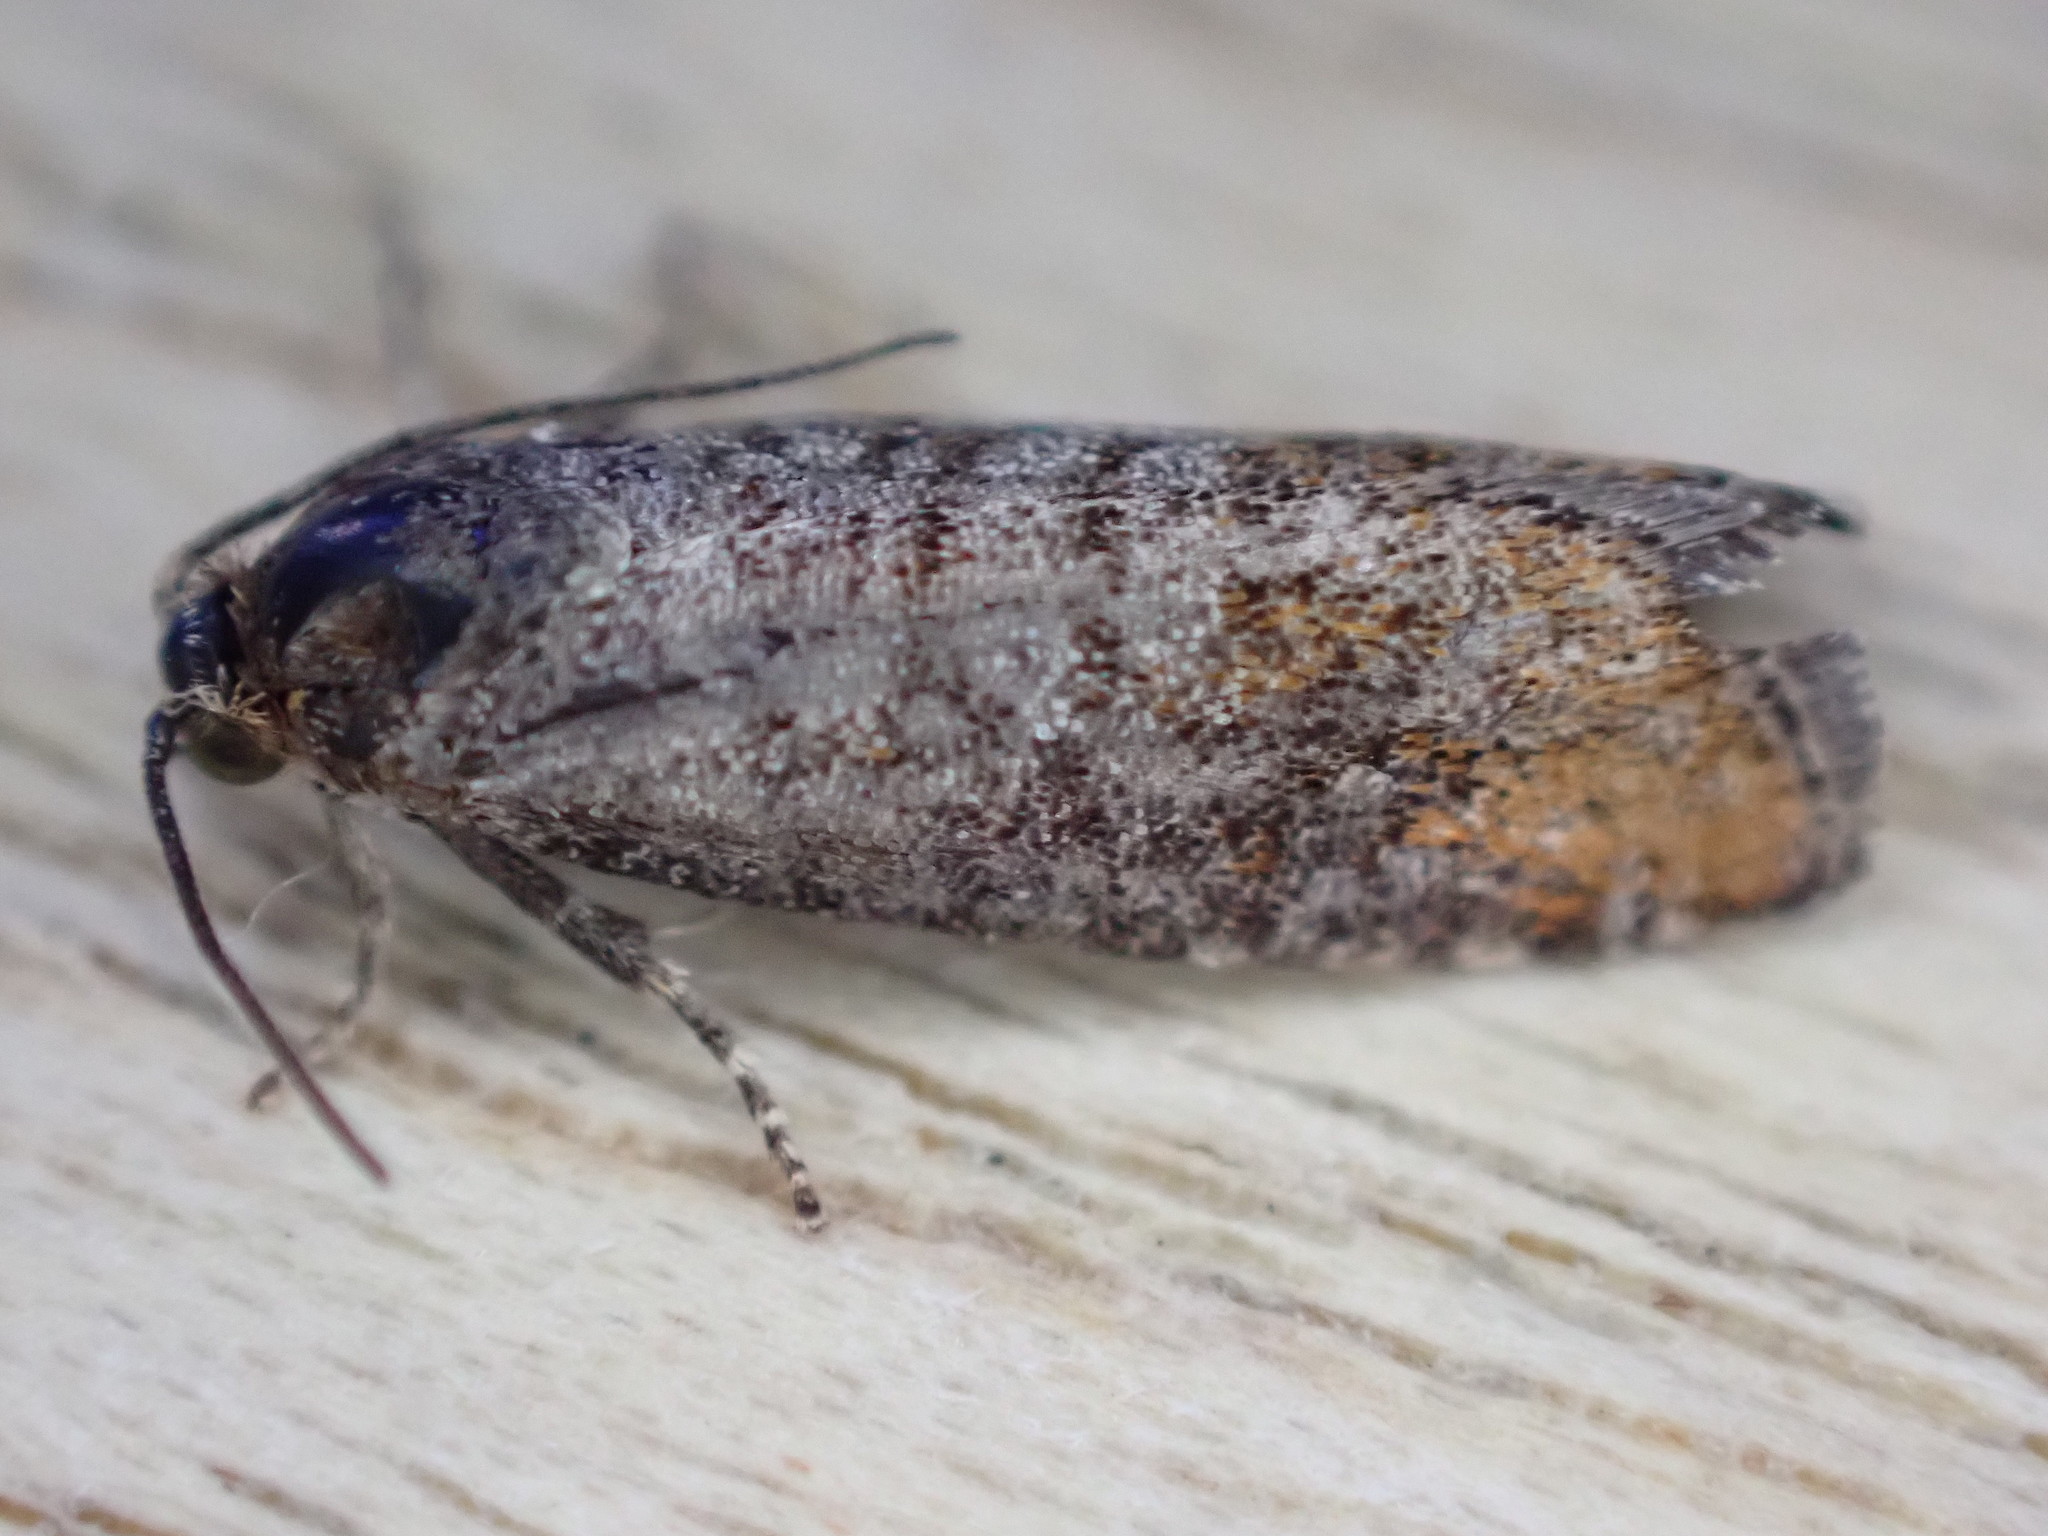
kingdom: Animalia
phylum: Arthropoda
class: Insecta
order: Lepidoptera
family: Tortricidae
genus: Blastesthia
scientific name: Blastesthia posticana
